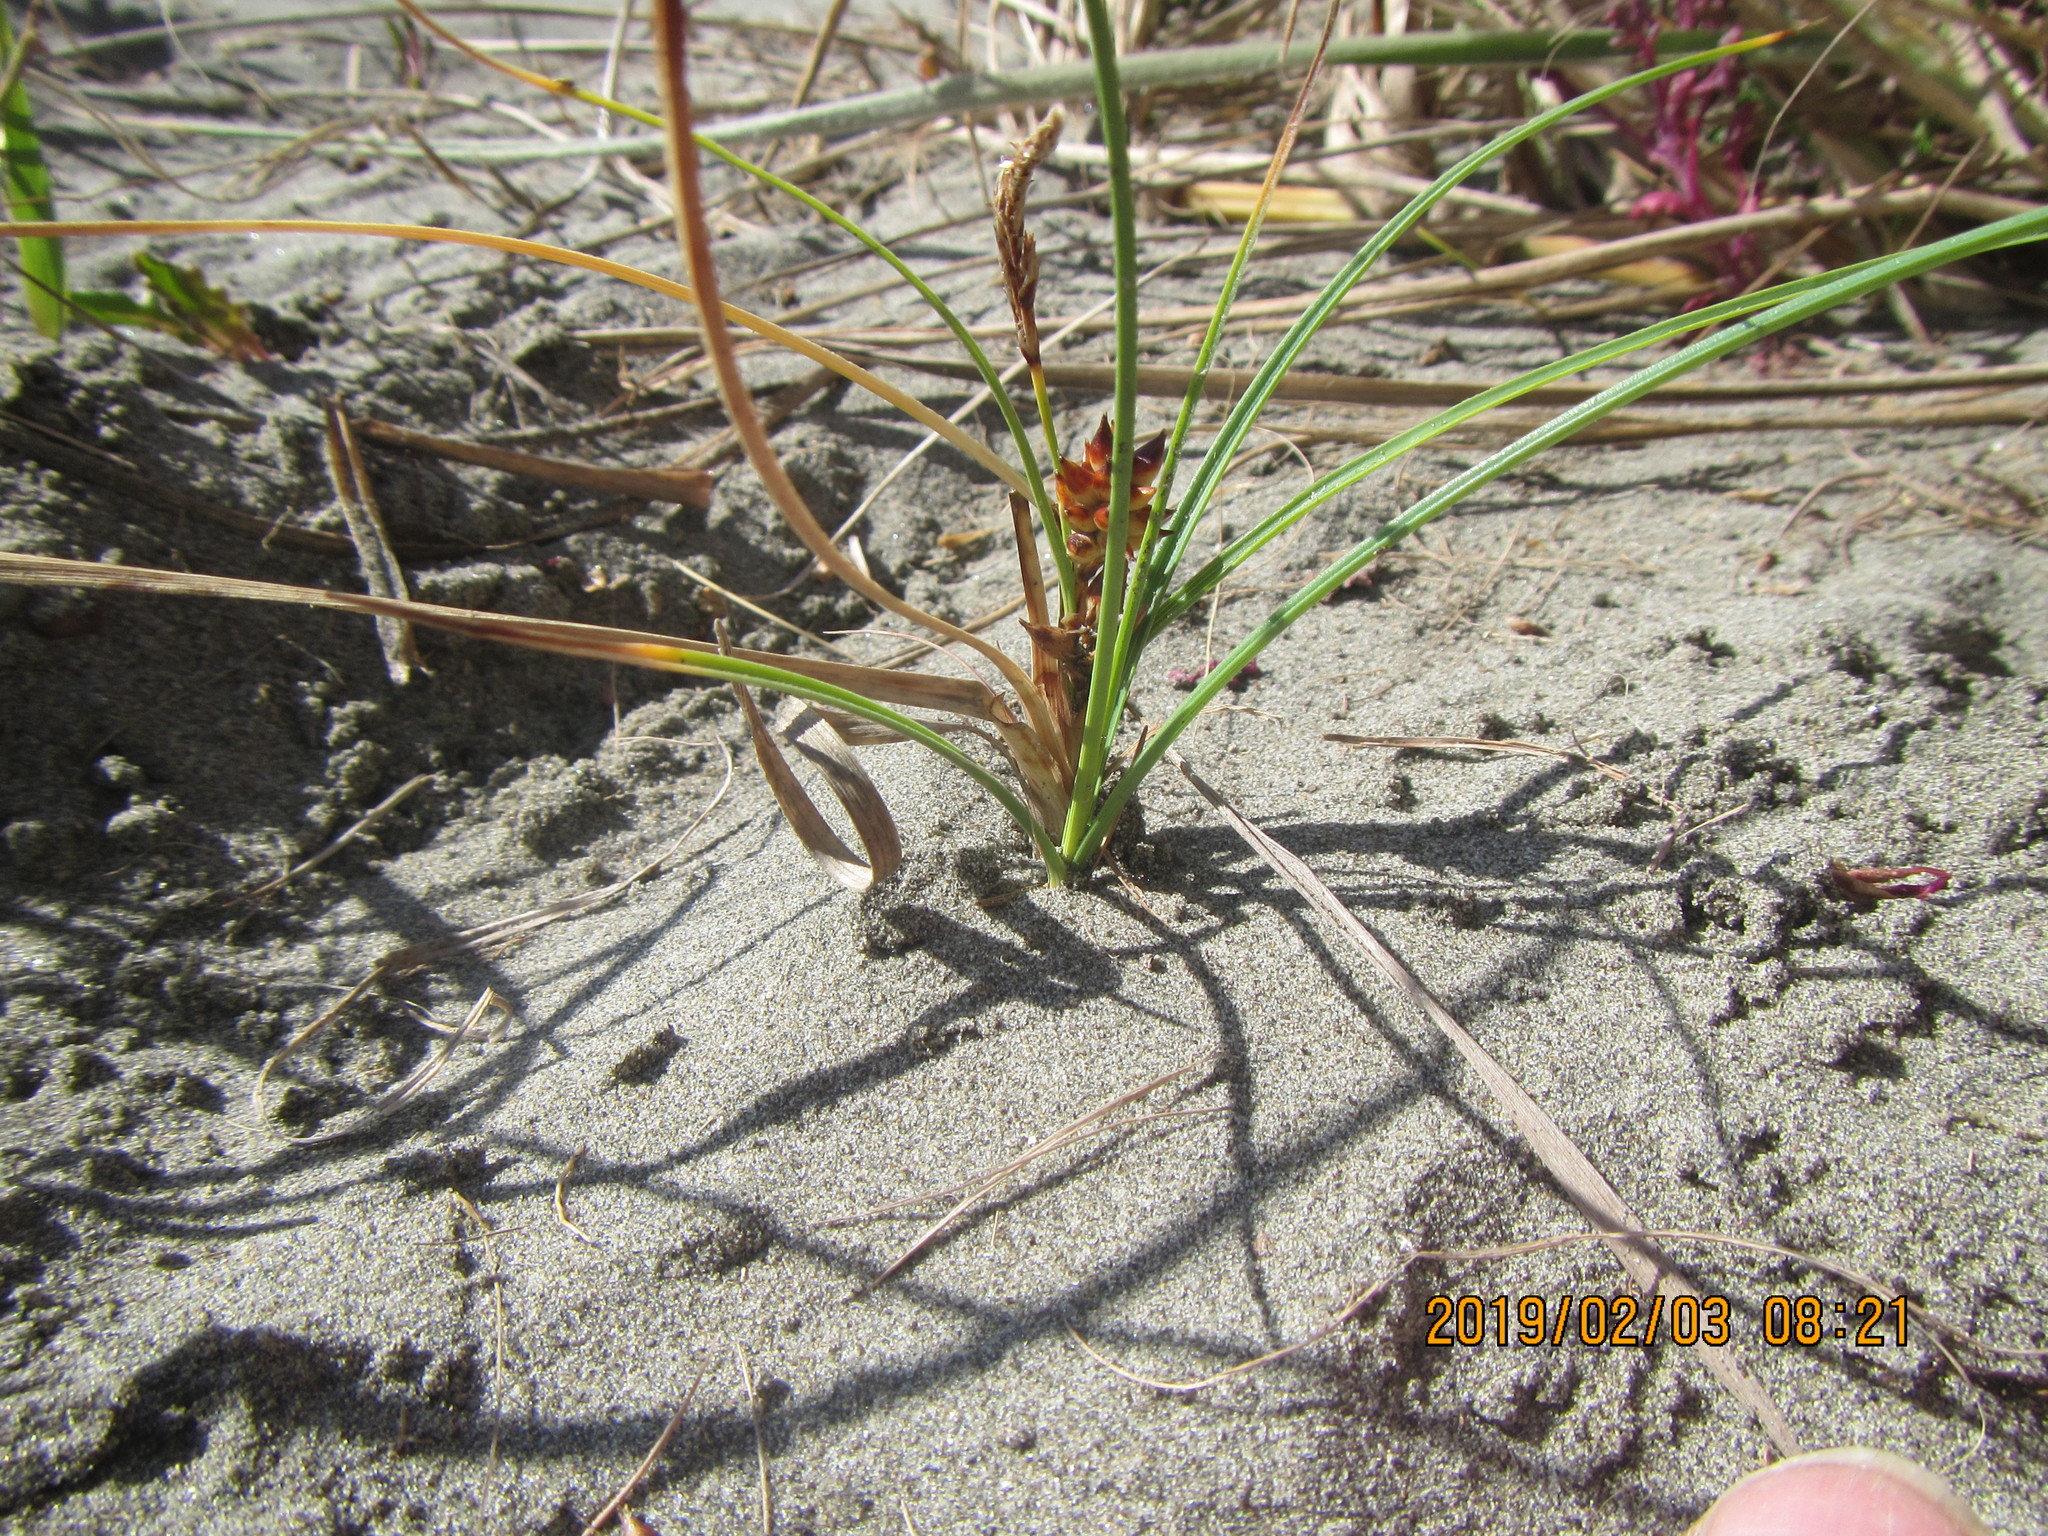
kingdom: Plantae
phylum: Tracheophyta
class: Liliopsida
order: Poales
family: Cyperaceae
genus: Carex
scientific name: Carex pumila
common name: Dwarf sedge
